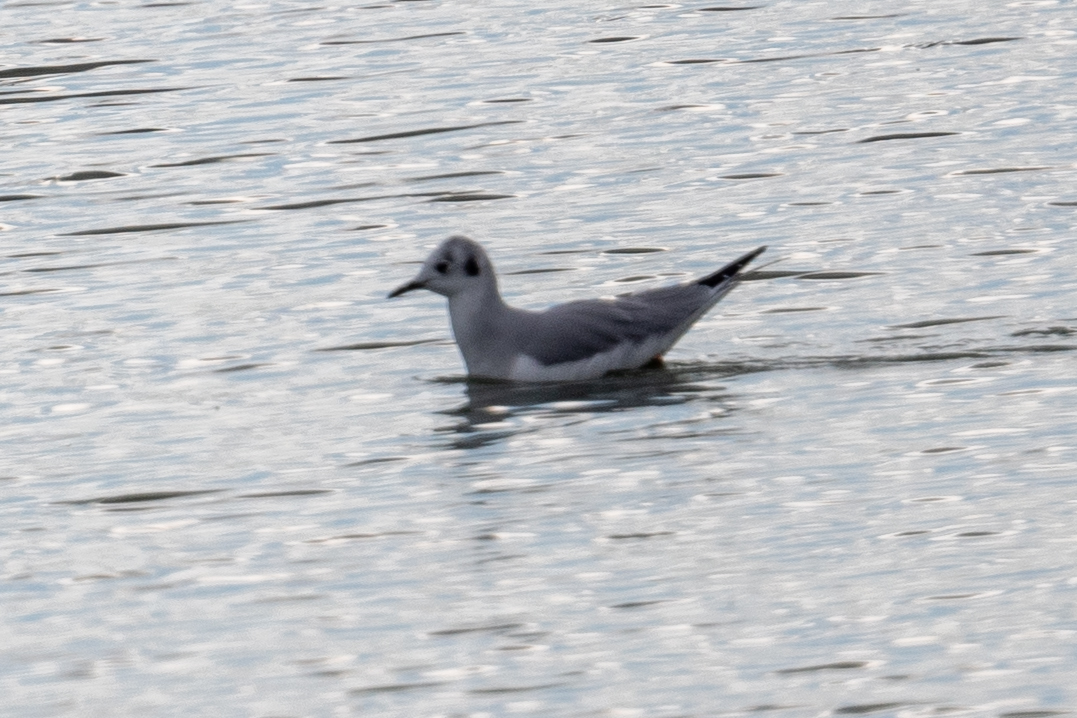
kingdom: Animalia
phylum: Chordata
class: Aves
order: Charadriiformes
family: Laridae
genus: Chroicocephalus
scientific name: Chroicocephalus philadelphia
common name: Bonaparte's gull
